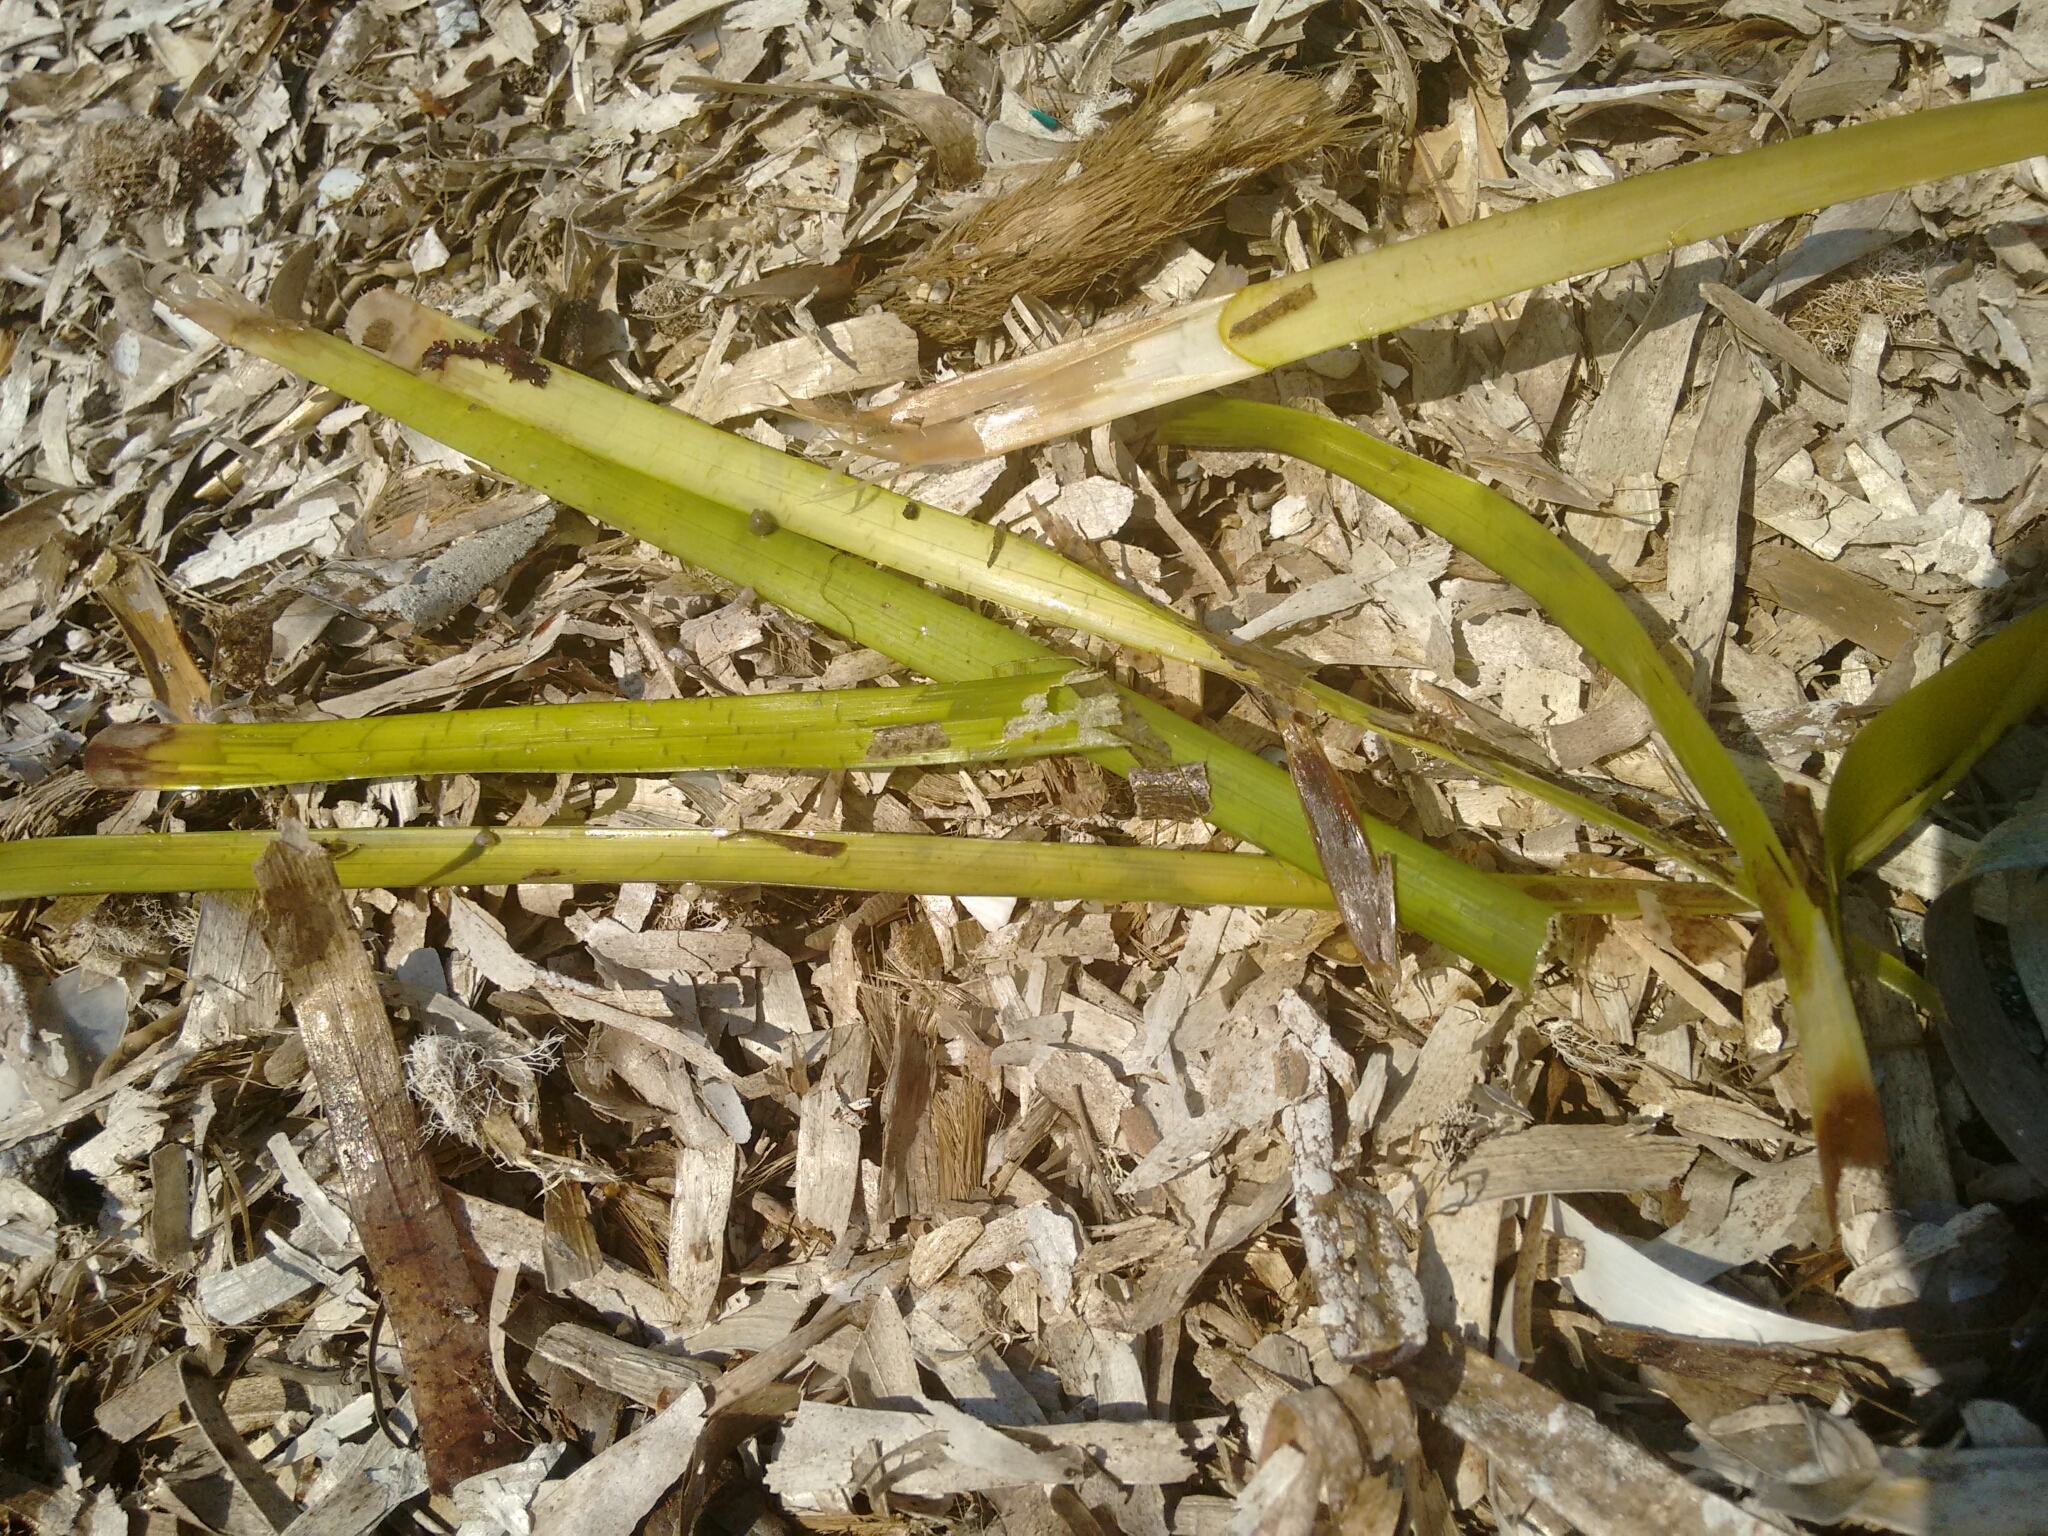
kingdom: Plantae
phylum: Tracheophyta
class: Liliopsida
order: Alismatales
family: Posidoniaceae
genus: Posidonia
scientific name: Posidonia oceanica
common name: Mediterranean tapeweed
